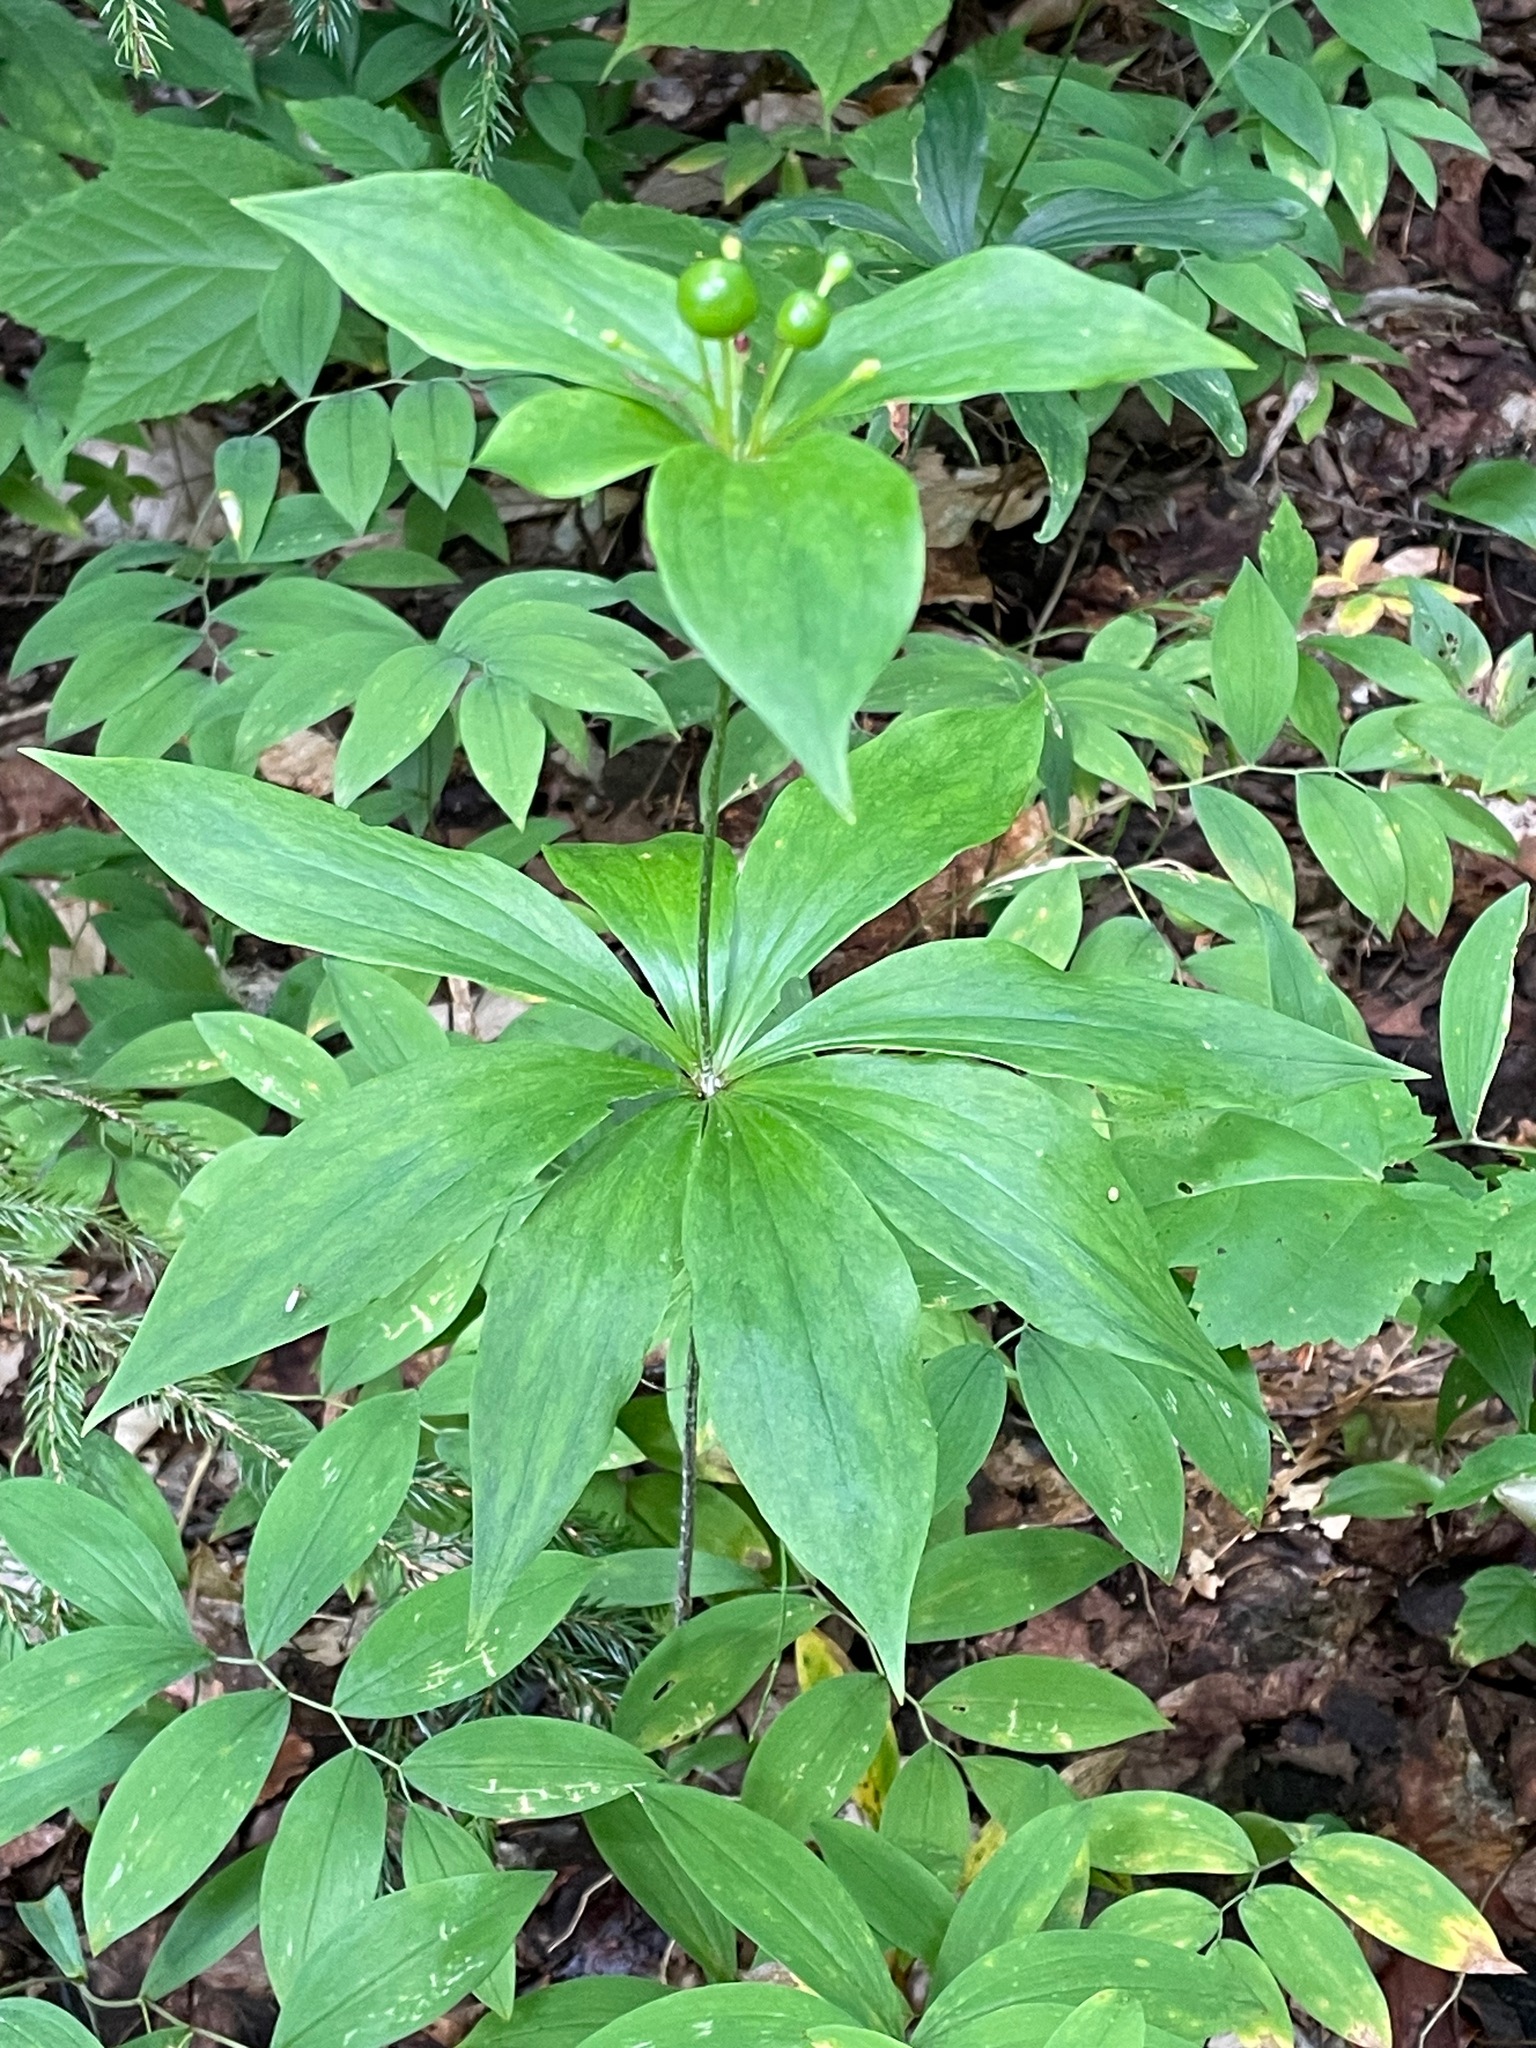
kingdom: Plantae
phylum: Tracheophyta
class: Liliopsida
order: Liliales
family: Liliaceae
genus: Medeola
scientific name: Medeola virginiana
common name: Indian cucumber-root
